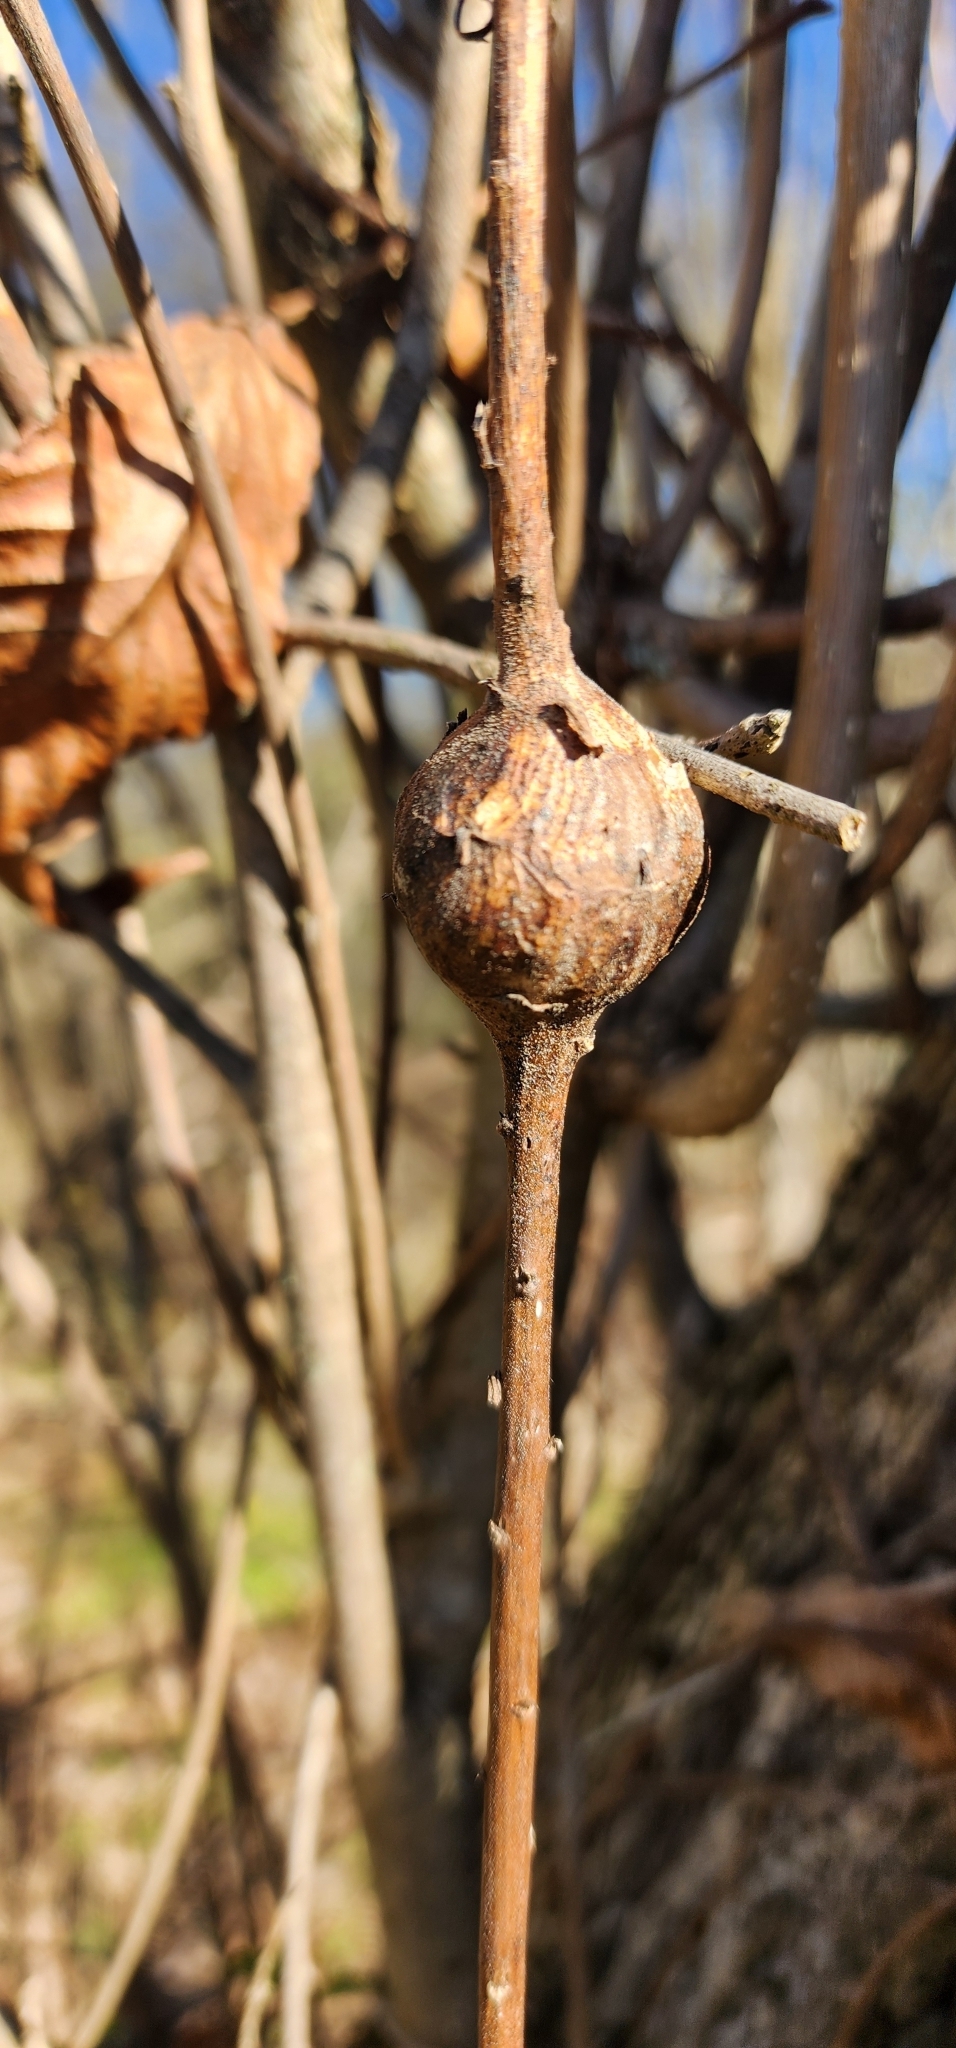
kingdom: Animalia
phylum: Arthropoda
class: Insecta
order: Diptera
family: Tephritidae
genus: Eurosta
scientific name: Eurosta solidaginis
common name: Goldenrod gall fly
